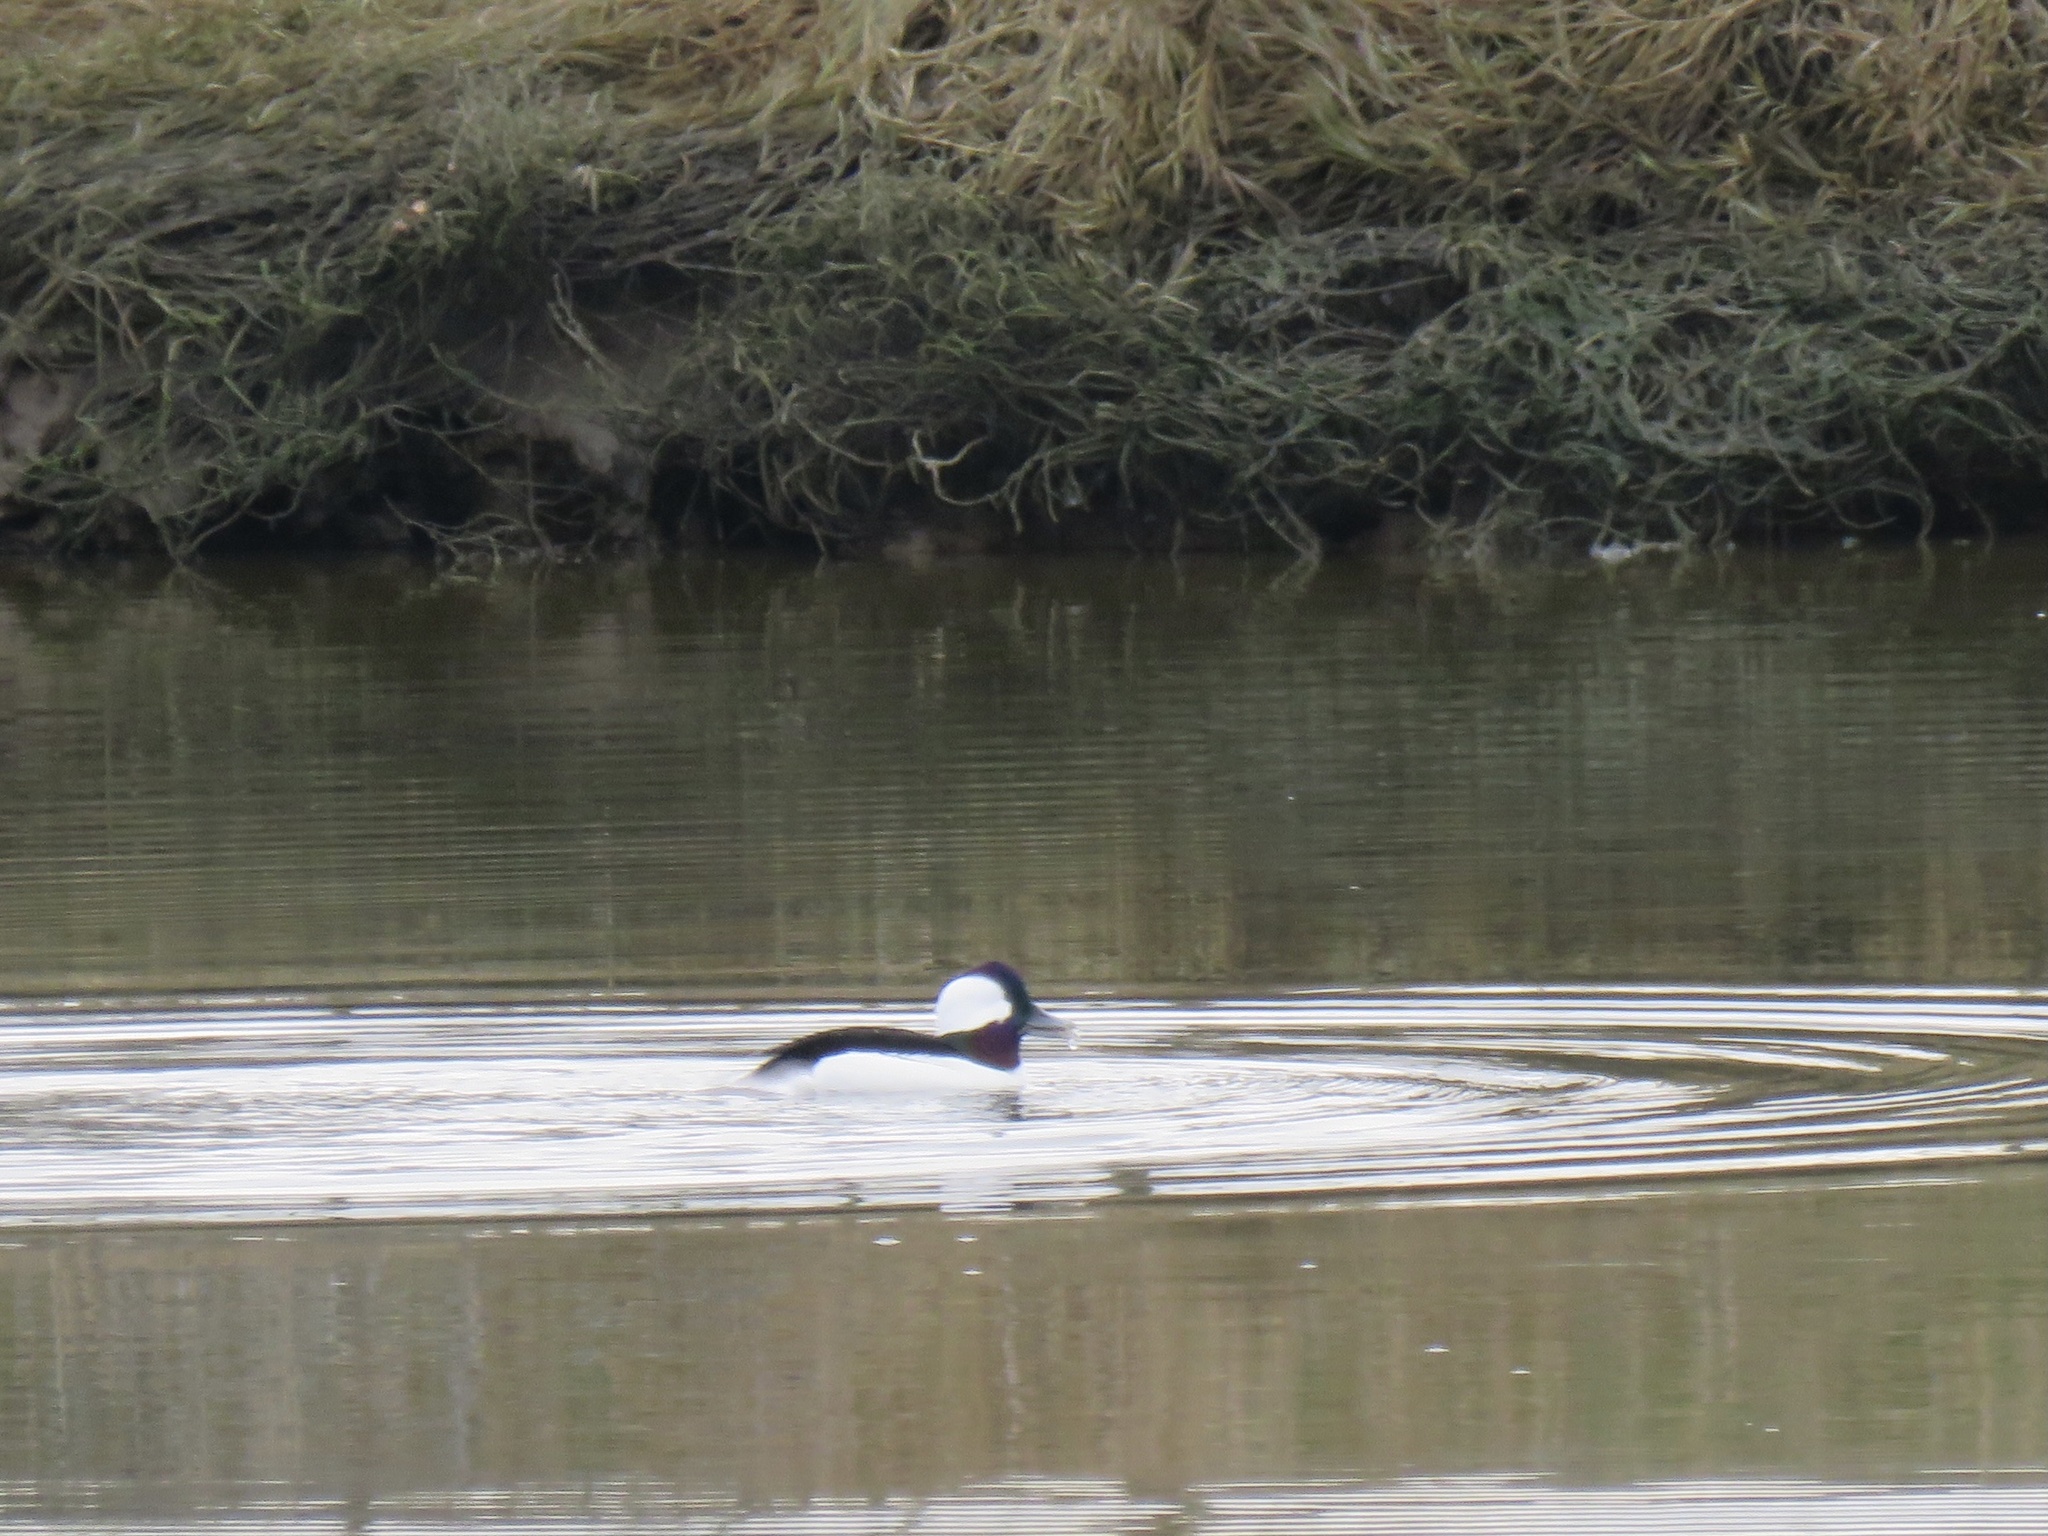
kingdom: Animalia
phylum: Chordata
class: Aves
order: Anseriformes
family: Anatidae
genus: Bucephala
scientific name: Bucephala albeola
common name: Bufflehead
